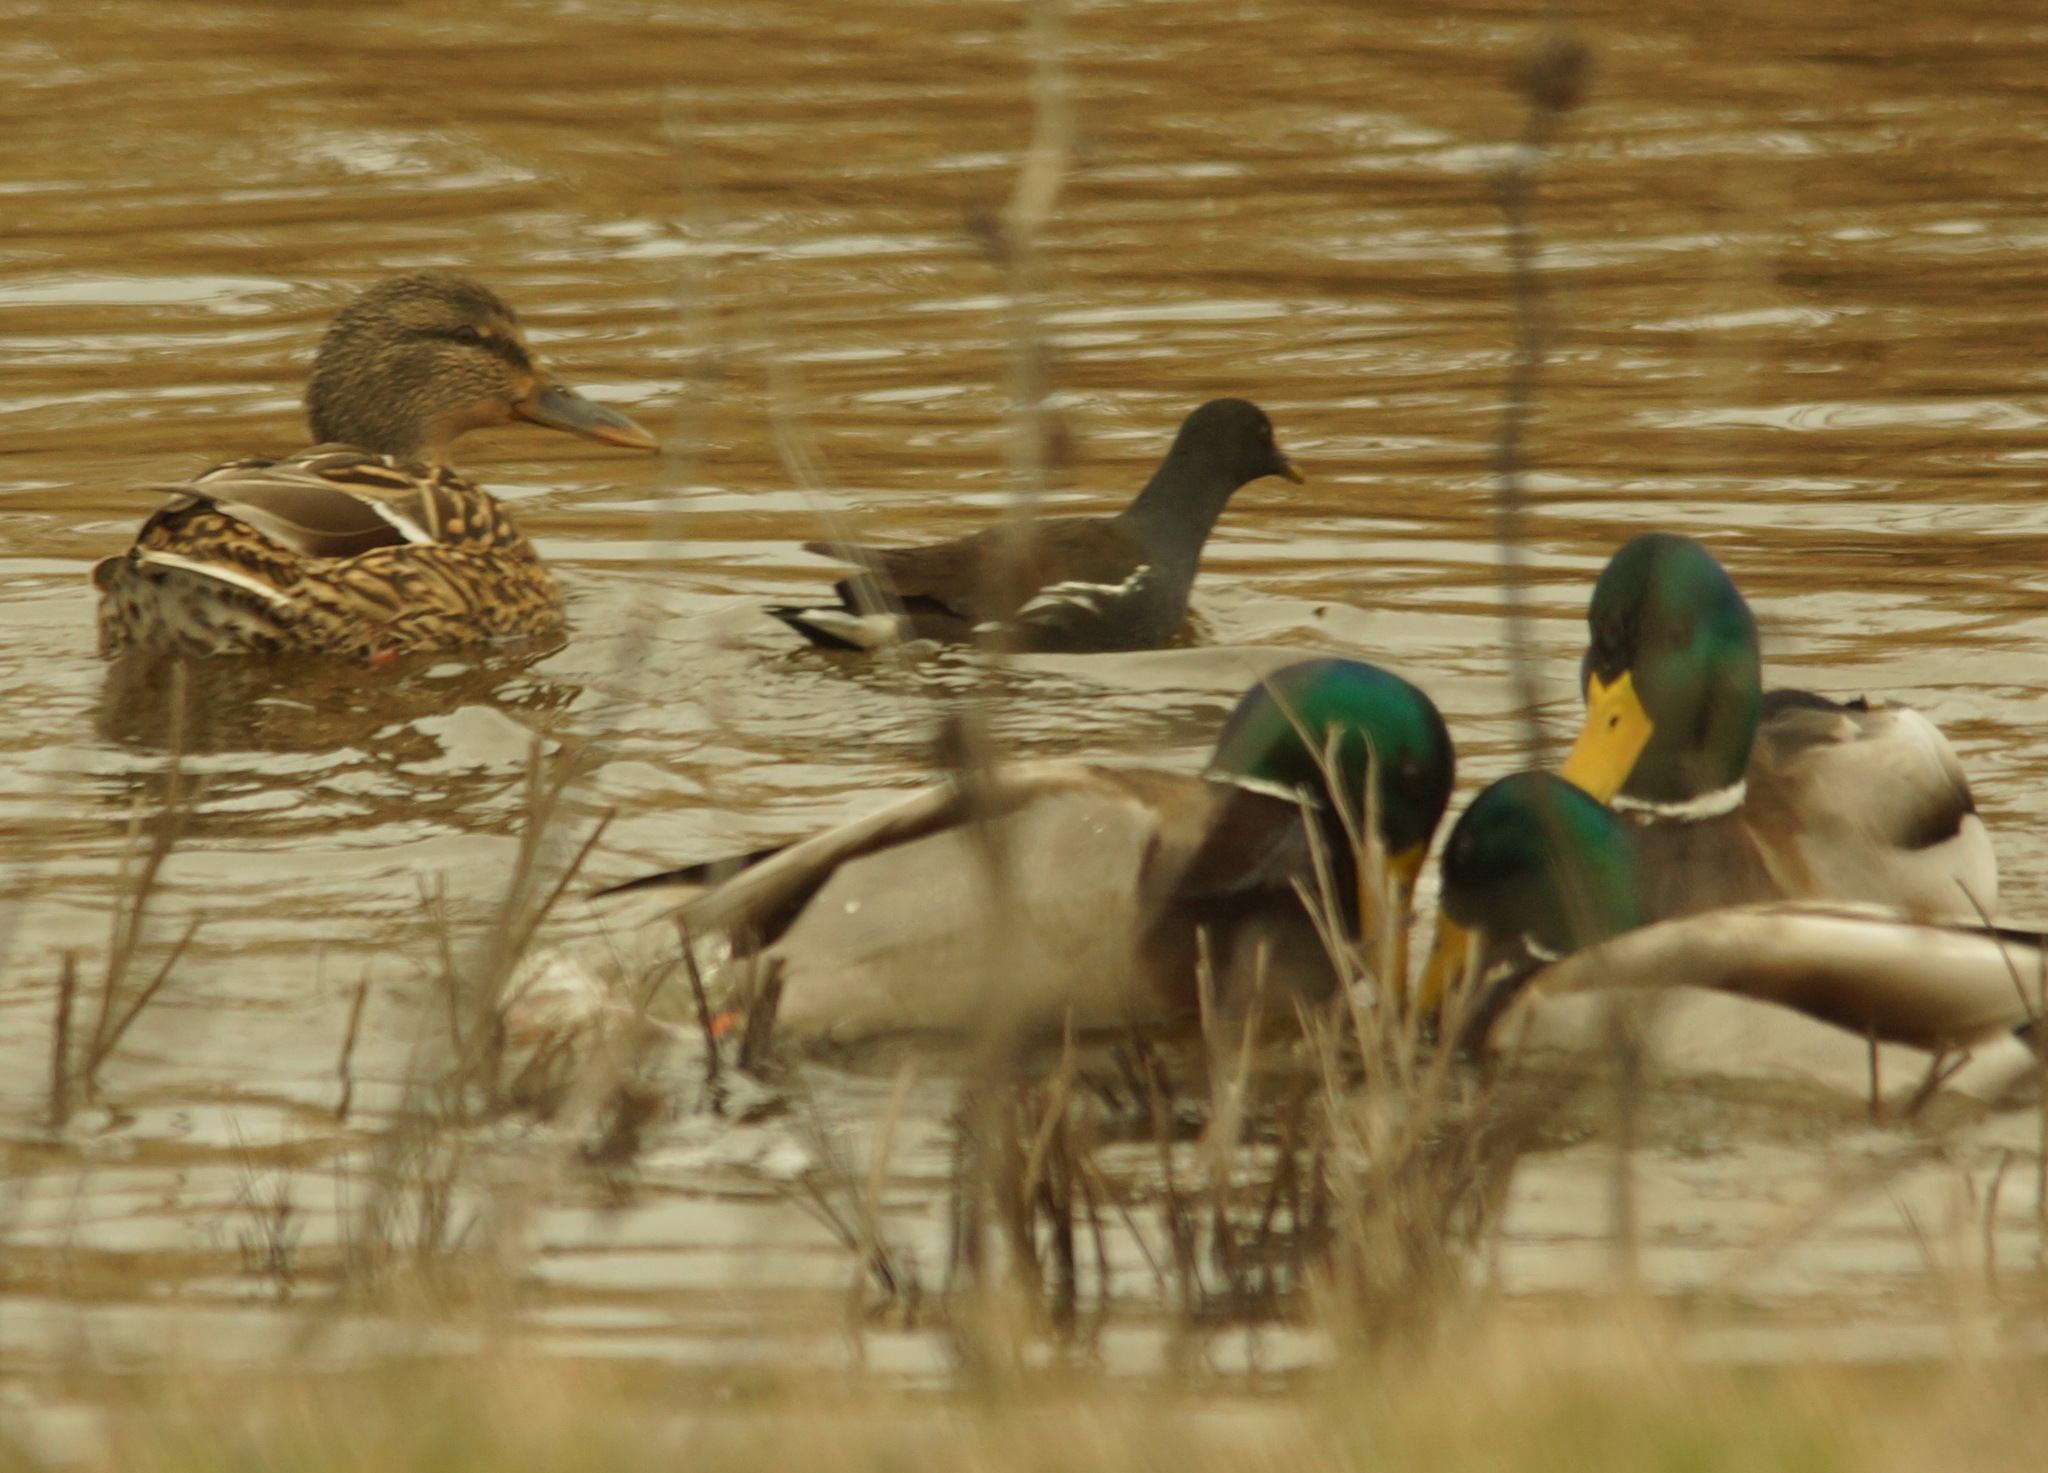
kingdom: Animalia
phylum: Chordata
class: Aves
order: Anseriformes
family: Anatidae
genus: Anas
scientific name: Anas platyrhynchos
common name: Mallard
